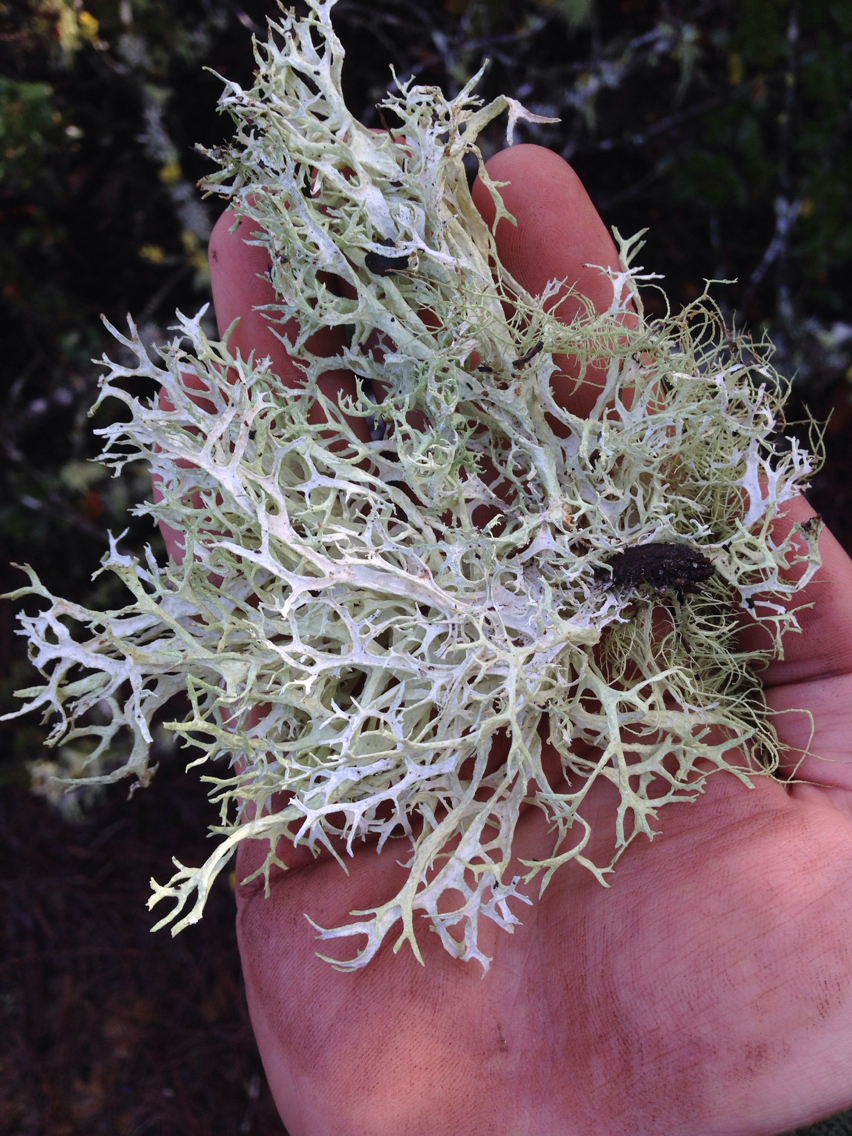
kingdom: Fungi
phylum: Ascomycota
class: Lecanoromycetes
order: Lecanorales
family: Parmeliaceae
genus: Evernia
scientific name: Evernia prunastri
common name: Oak moss
